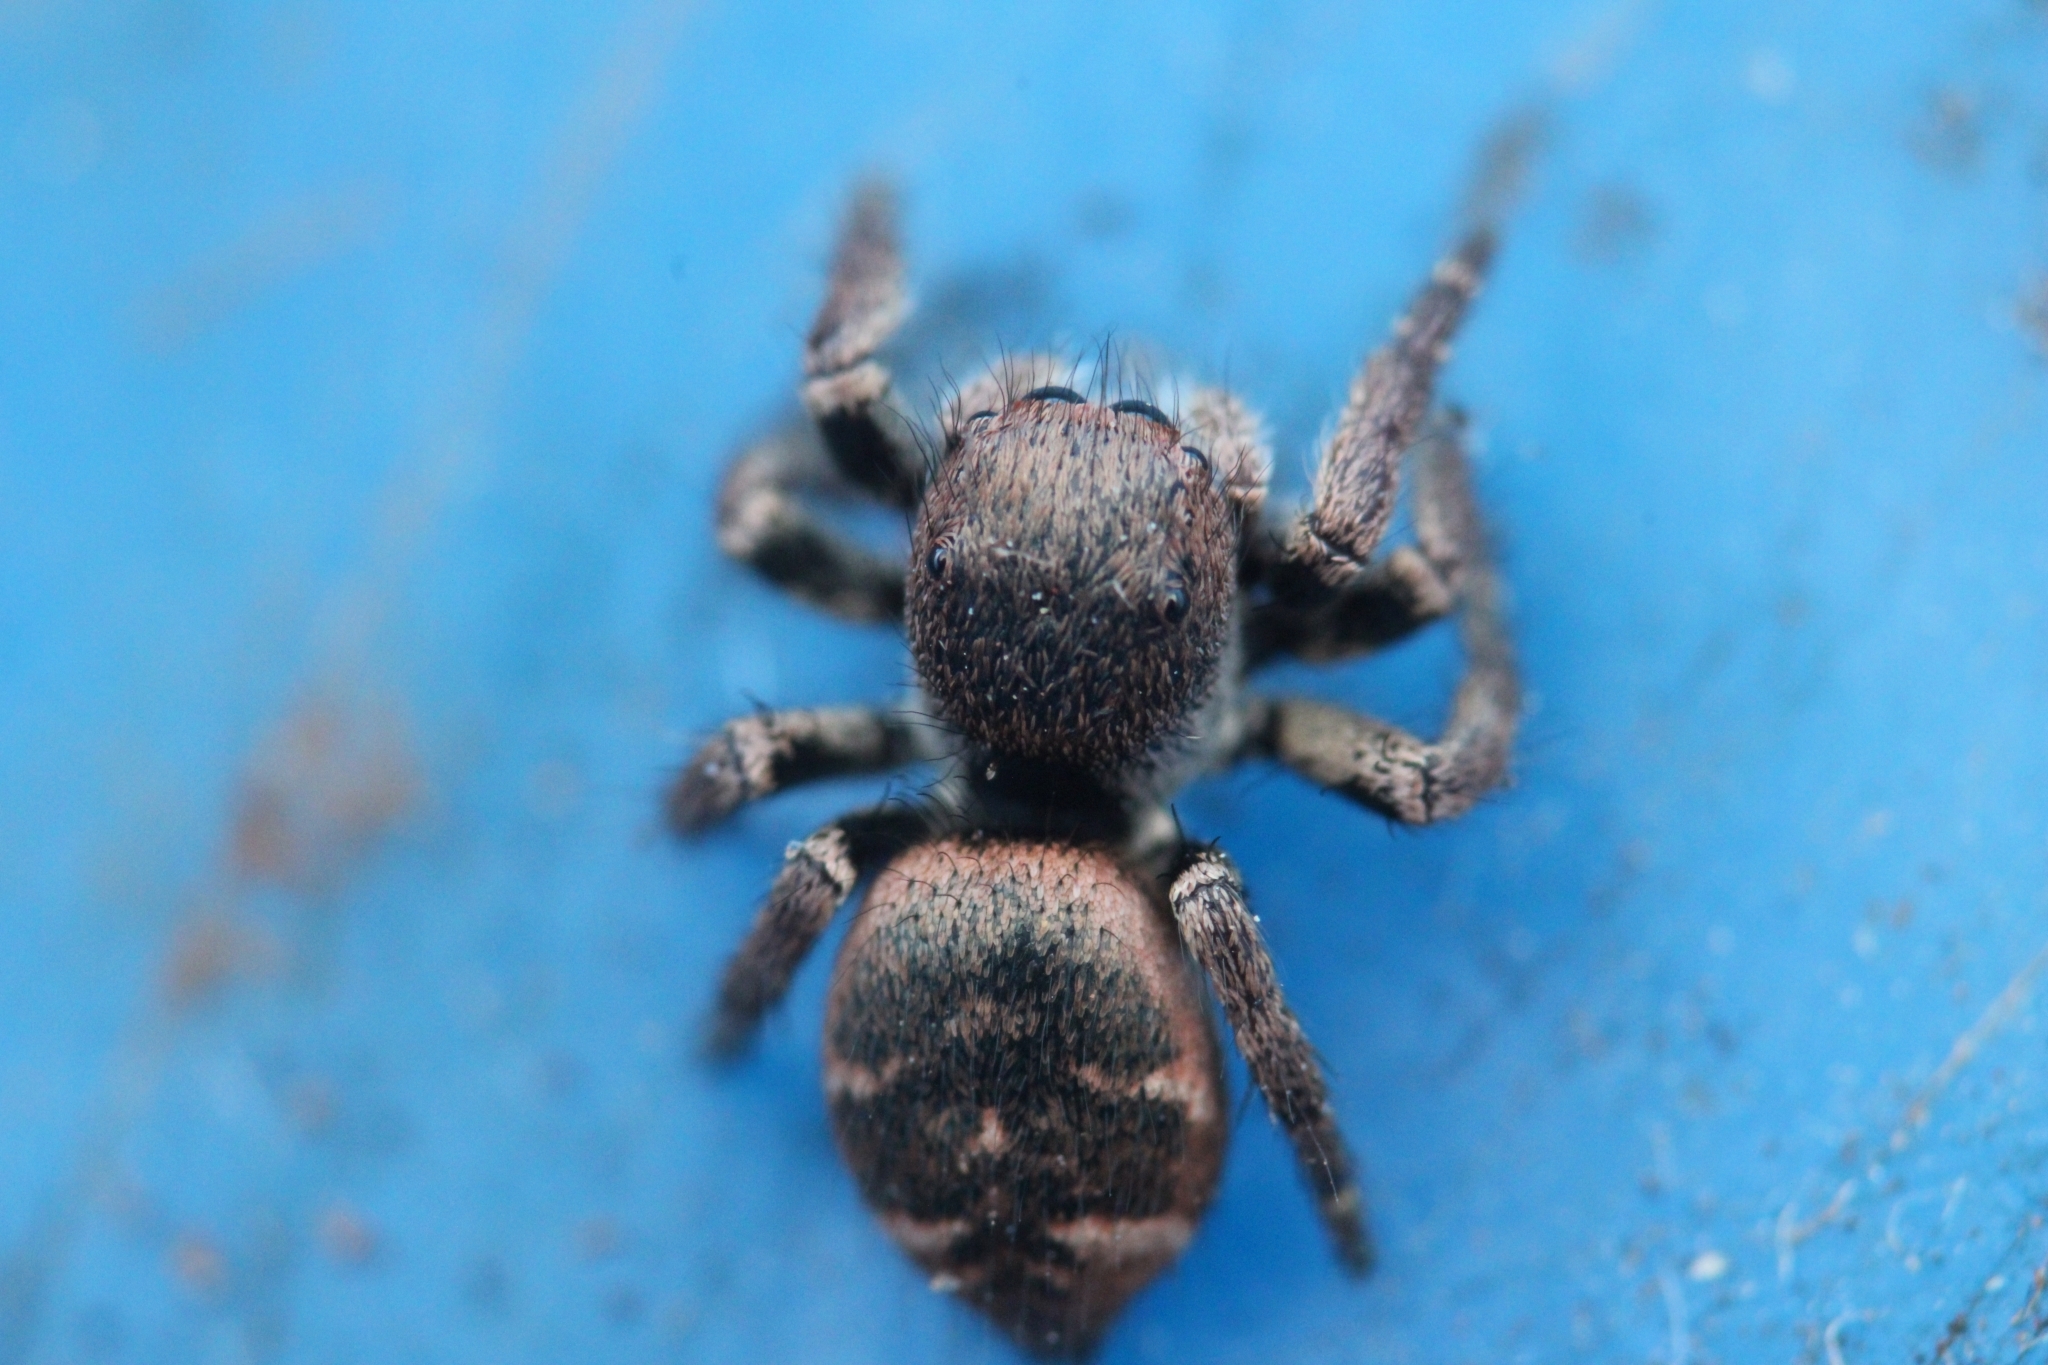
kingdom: Animalia
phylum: Arthropoda
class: Arachnida
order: Araneae
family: Salticidae
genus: Baryphas
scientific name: Baryphas ahenus
